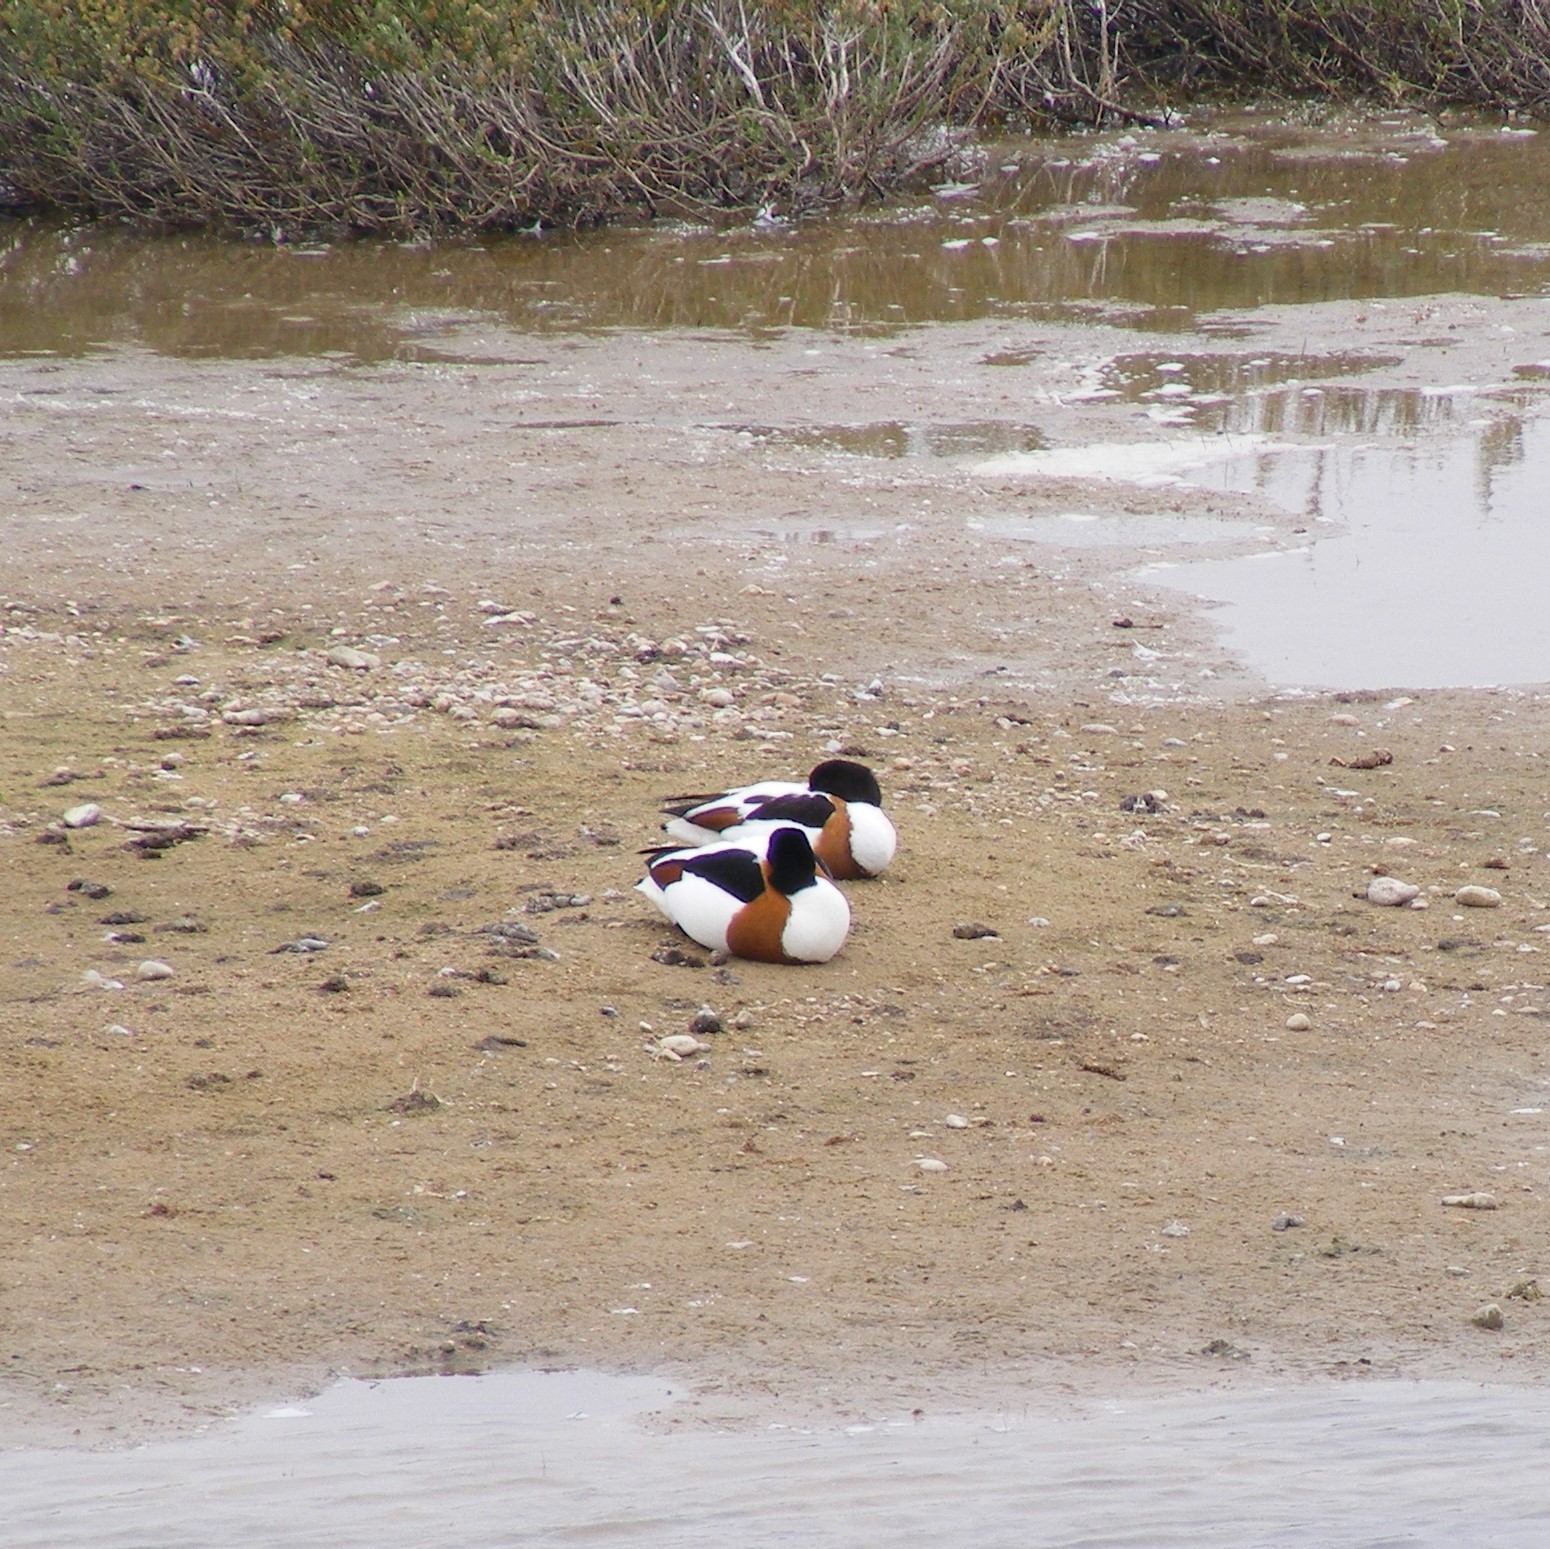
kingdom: Animalia
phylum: Chordata
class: Aves
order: Anseriformes
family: Anatidae
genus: Tadorna
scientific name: Tadorna tadorna
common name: Common shelduck
